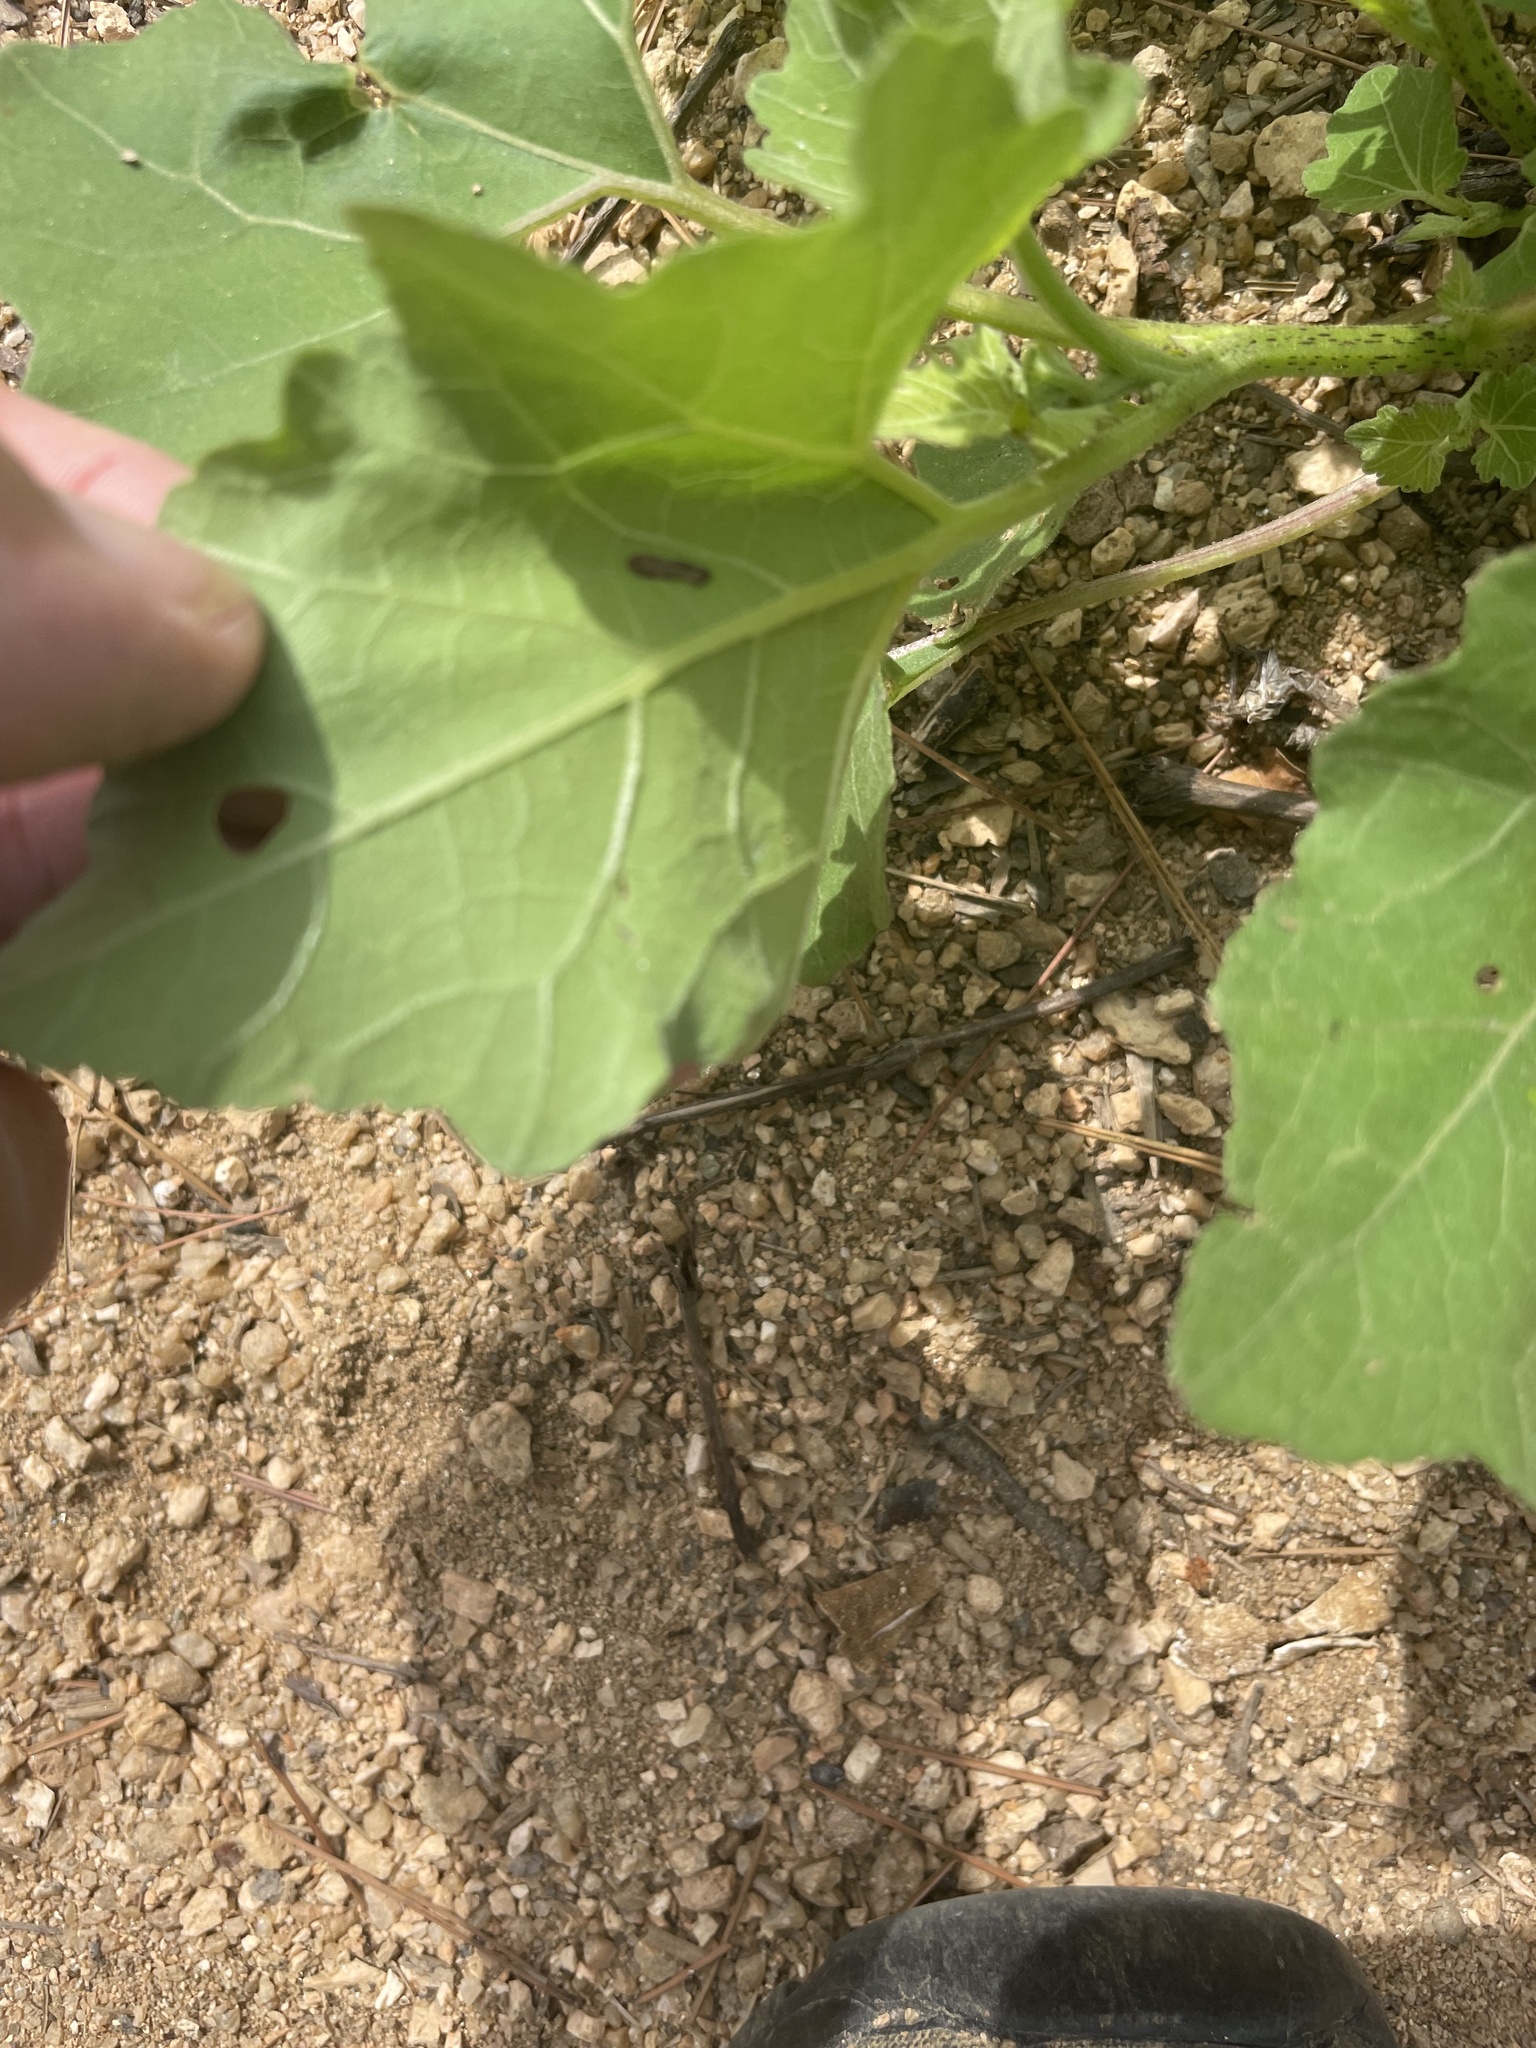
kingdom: Plantae
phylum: Tracheophyta
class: Magnoliopsida
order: Asterales
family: Asteraceae
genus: Xanthium
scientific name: Xanthium strumarium
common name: Rough cocklebur
